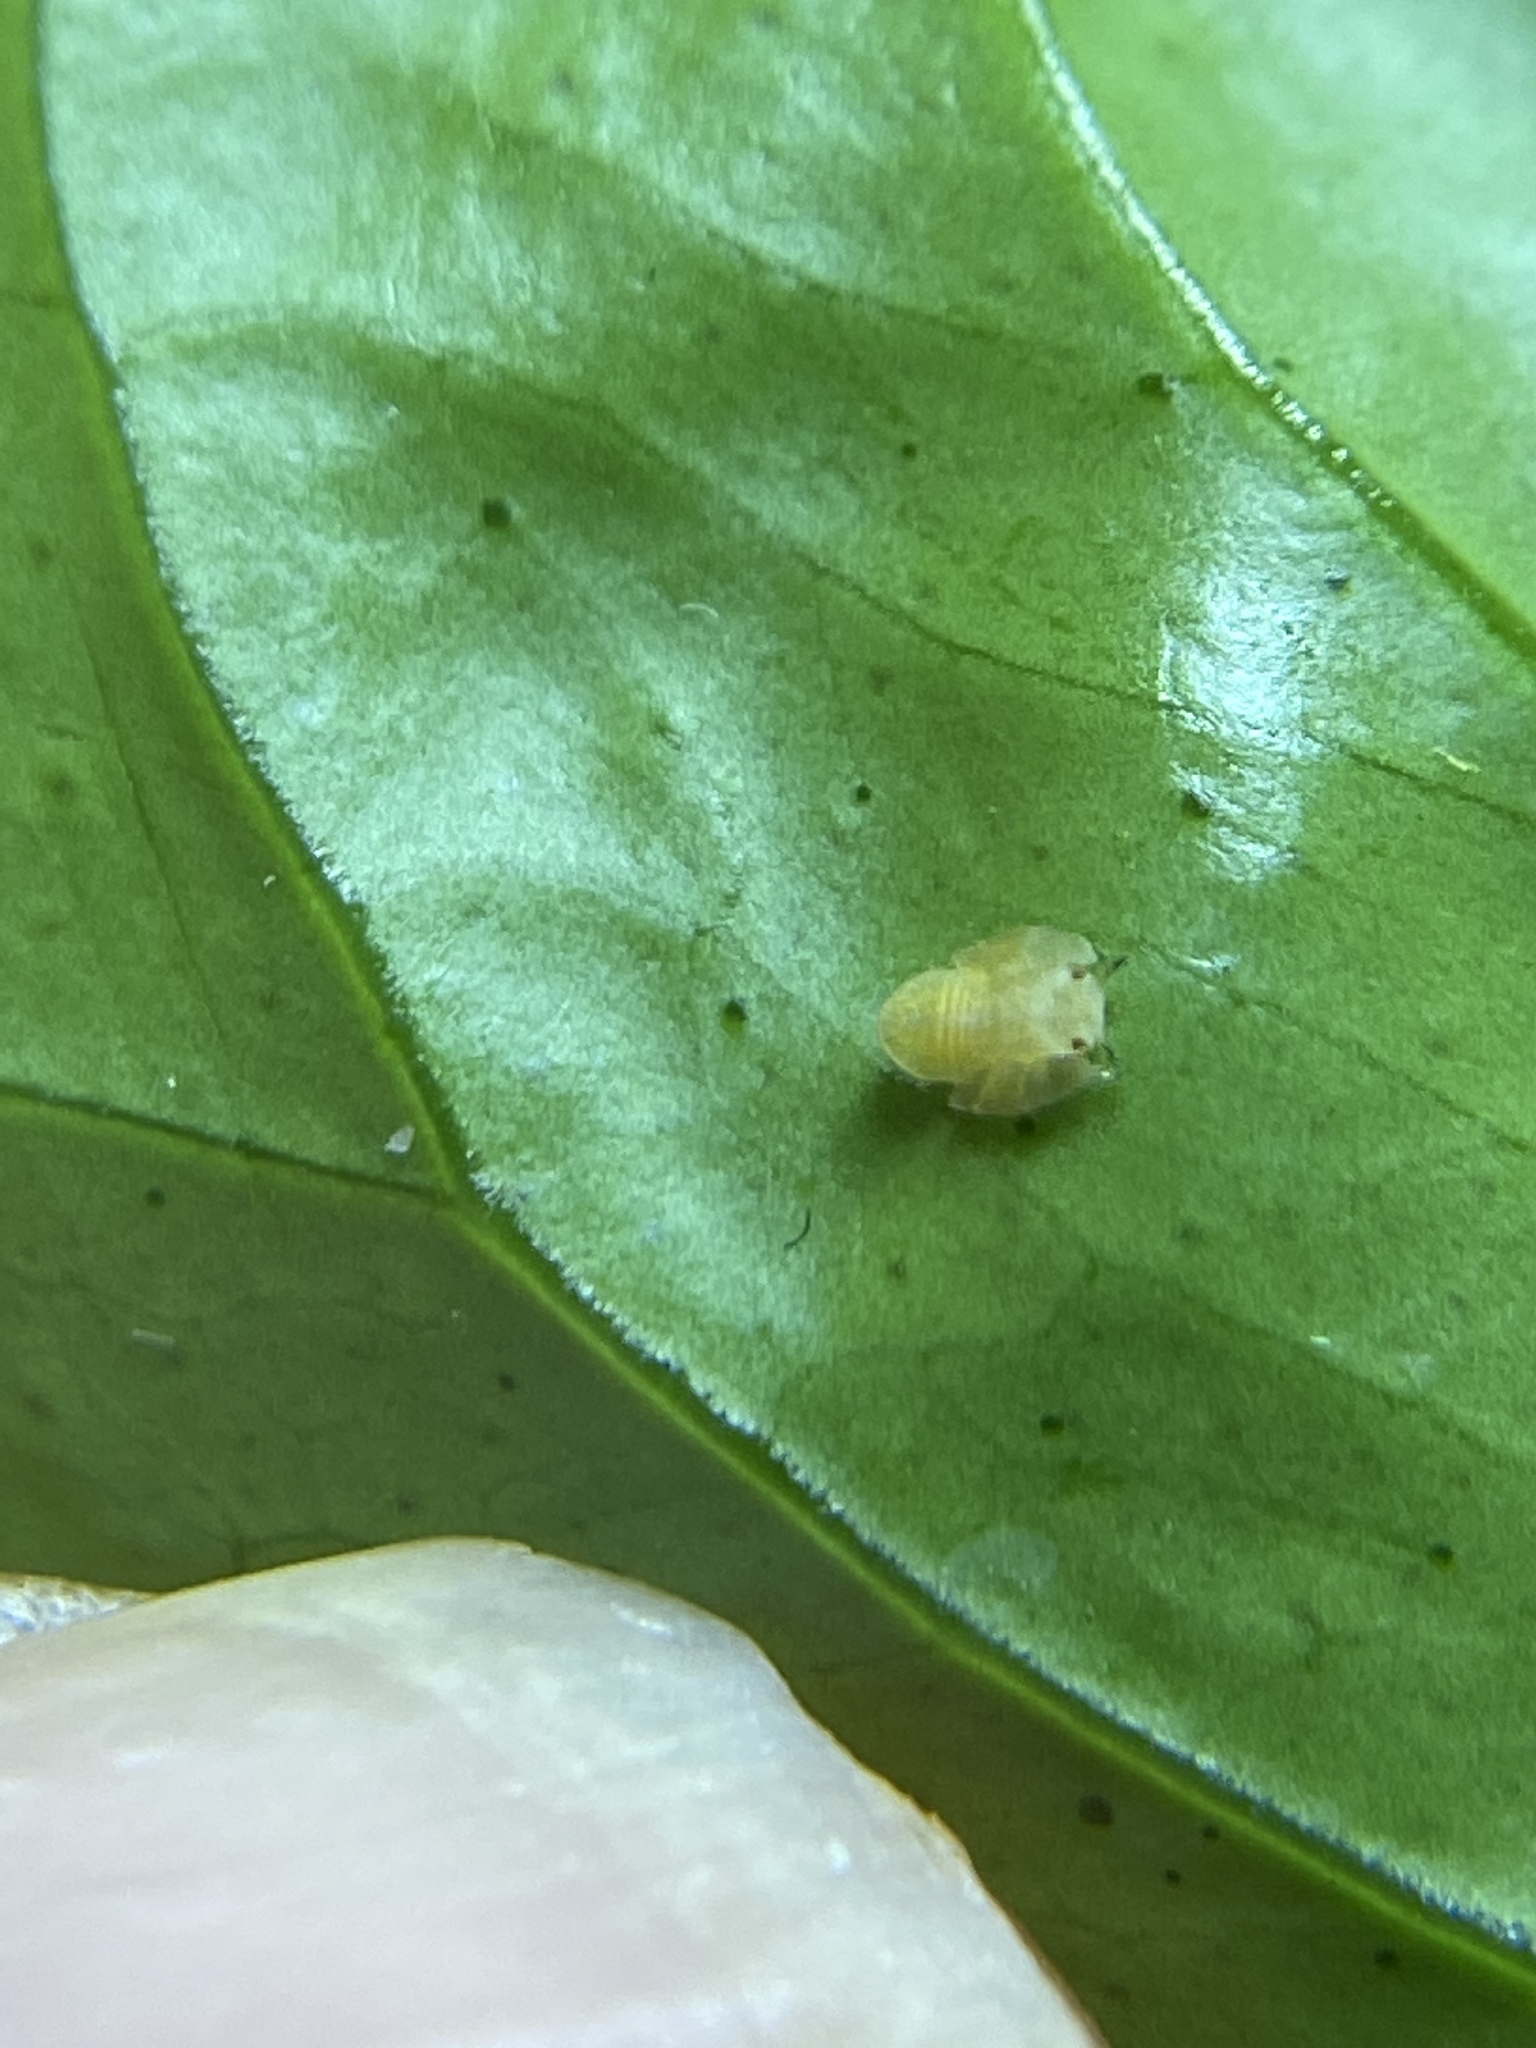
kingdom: Animalia
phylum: Arthropoda
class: Insecta
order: Hemiptera
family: Liviidae
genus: Diaphorina
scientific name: Diaphorina citri
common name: Asian citrus psyllid
